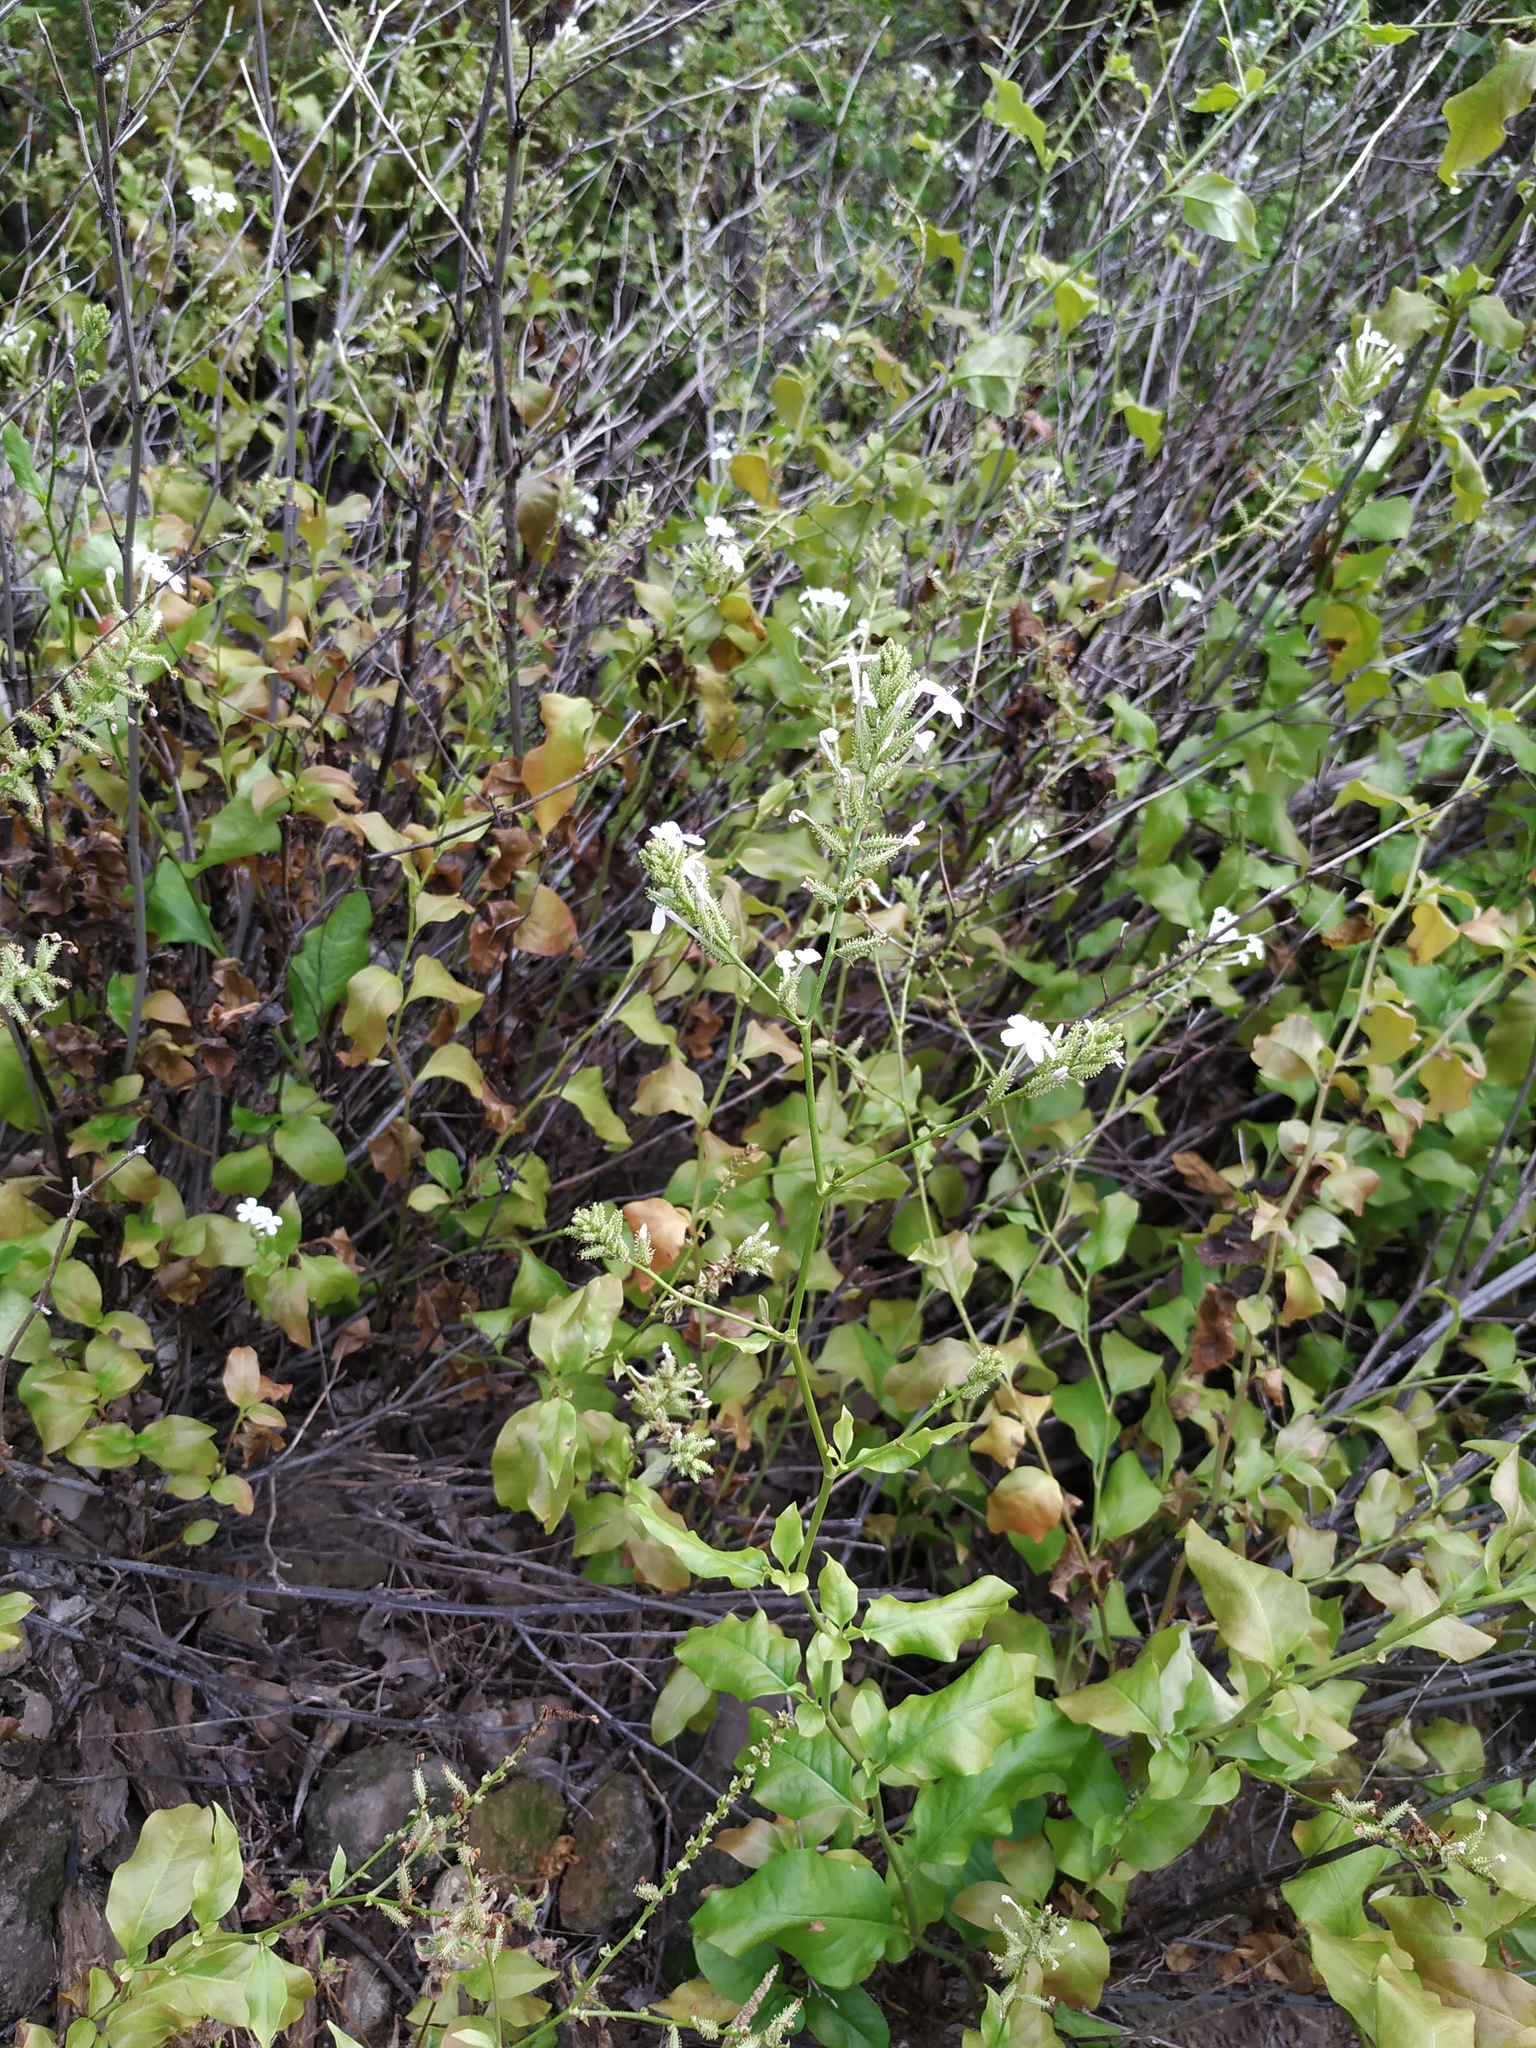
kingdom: Plantae
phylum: Tracheophyta
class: Magnoliopsida
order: Caryophyllales
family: Plumbaginaceae
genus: Plumbago
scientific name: Plumbago zeylanica
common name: Doctorbush
